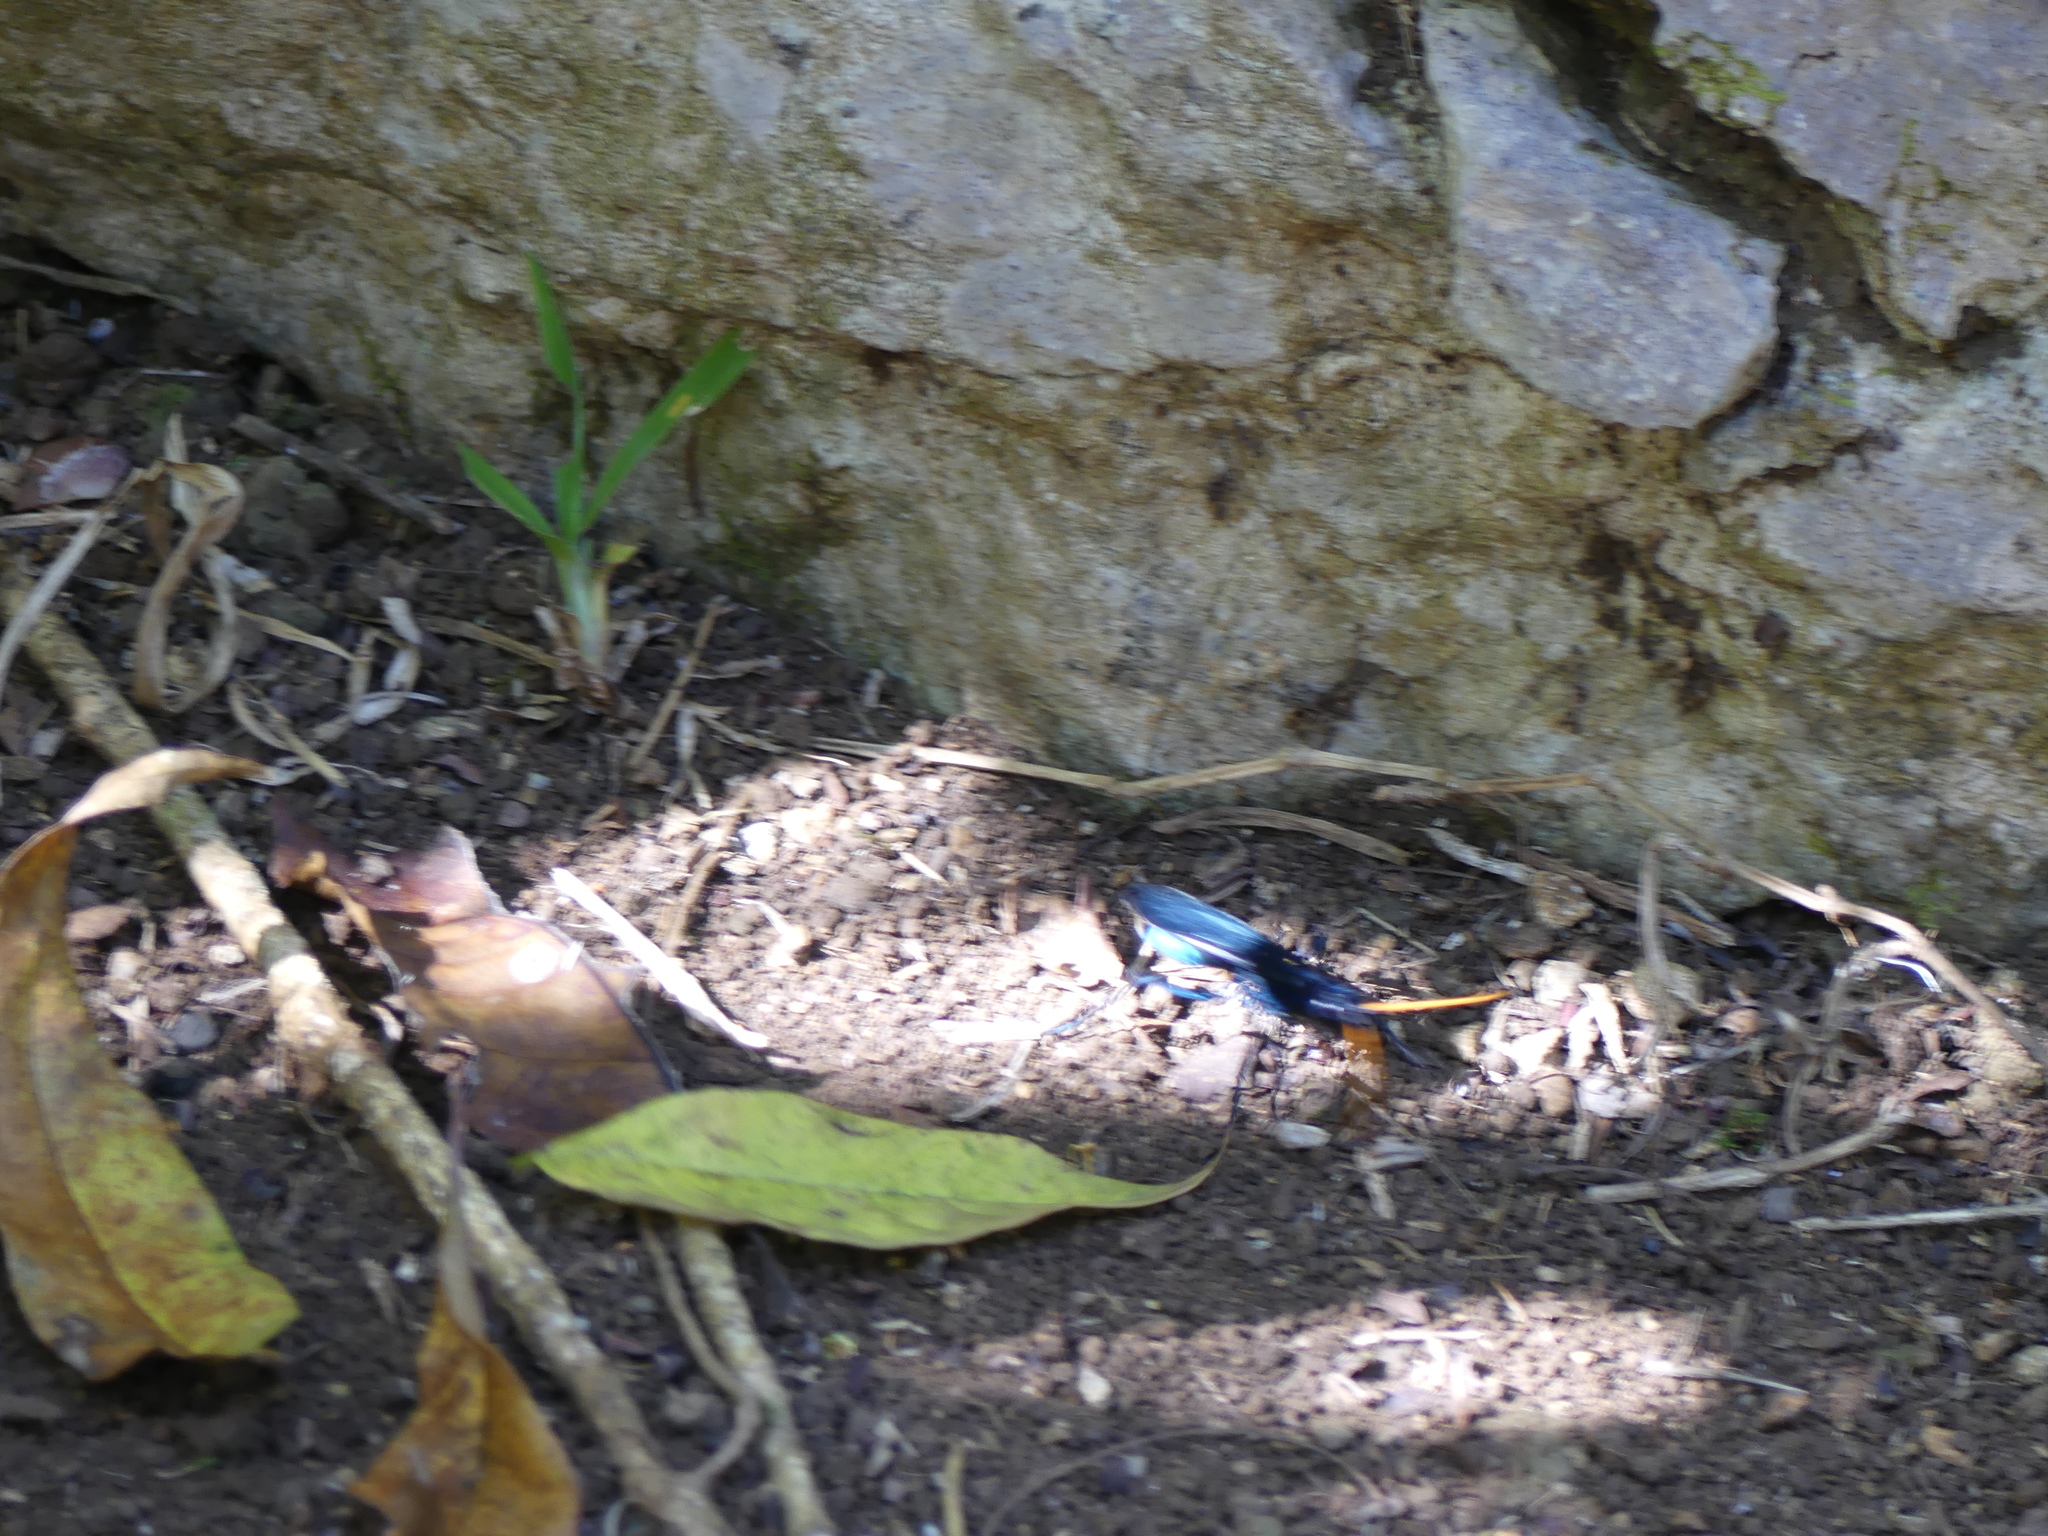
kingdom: Animalia
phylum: Arthropoda
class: Insecta
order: Hymenoptera
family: Pompilidae
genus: Pepsis
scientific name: Pepsis ruficornis
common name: Orange-horned tarantula hawk
